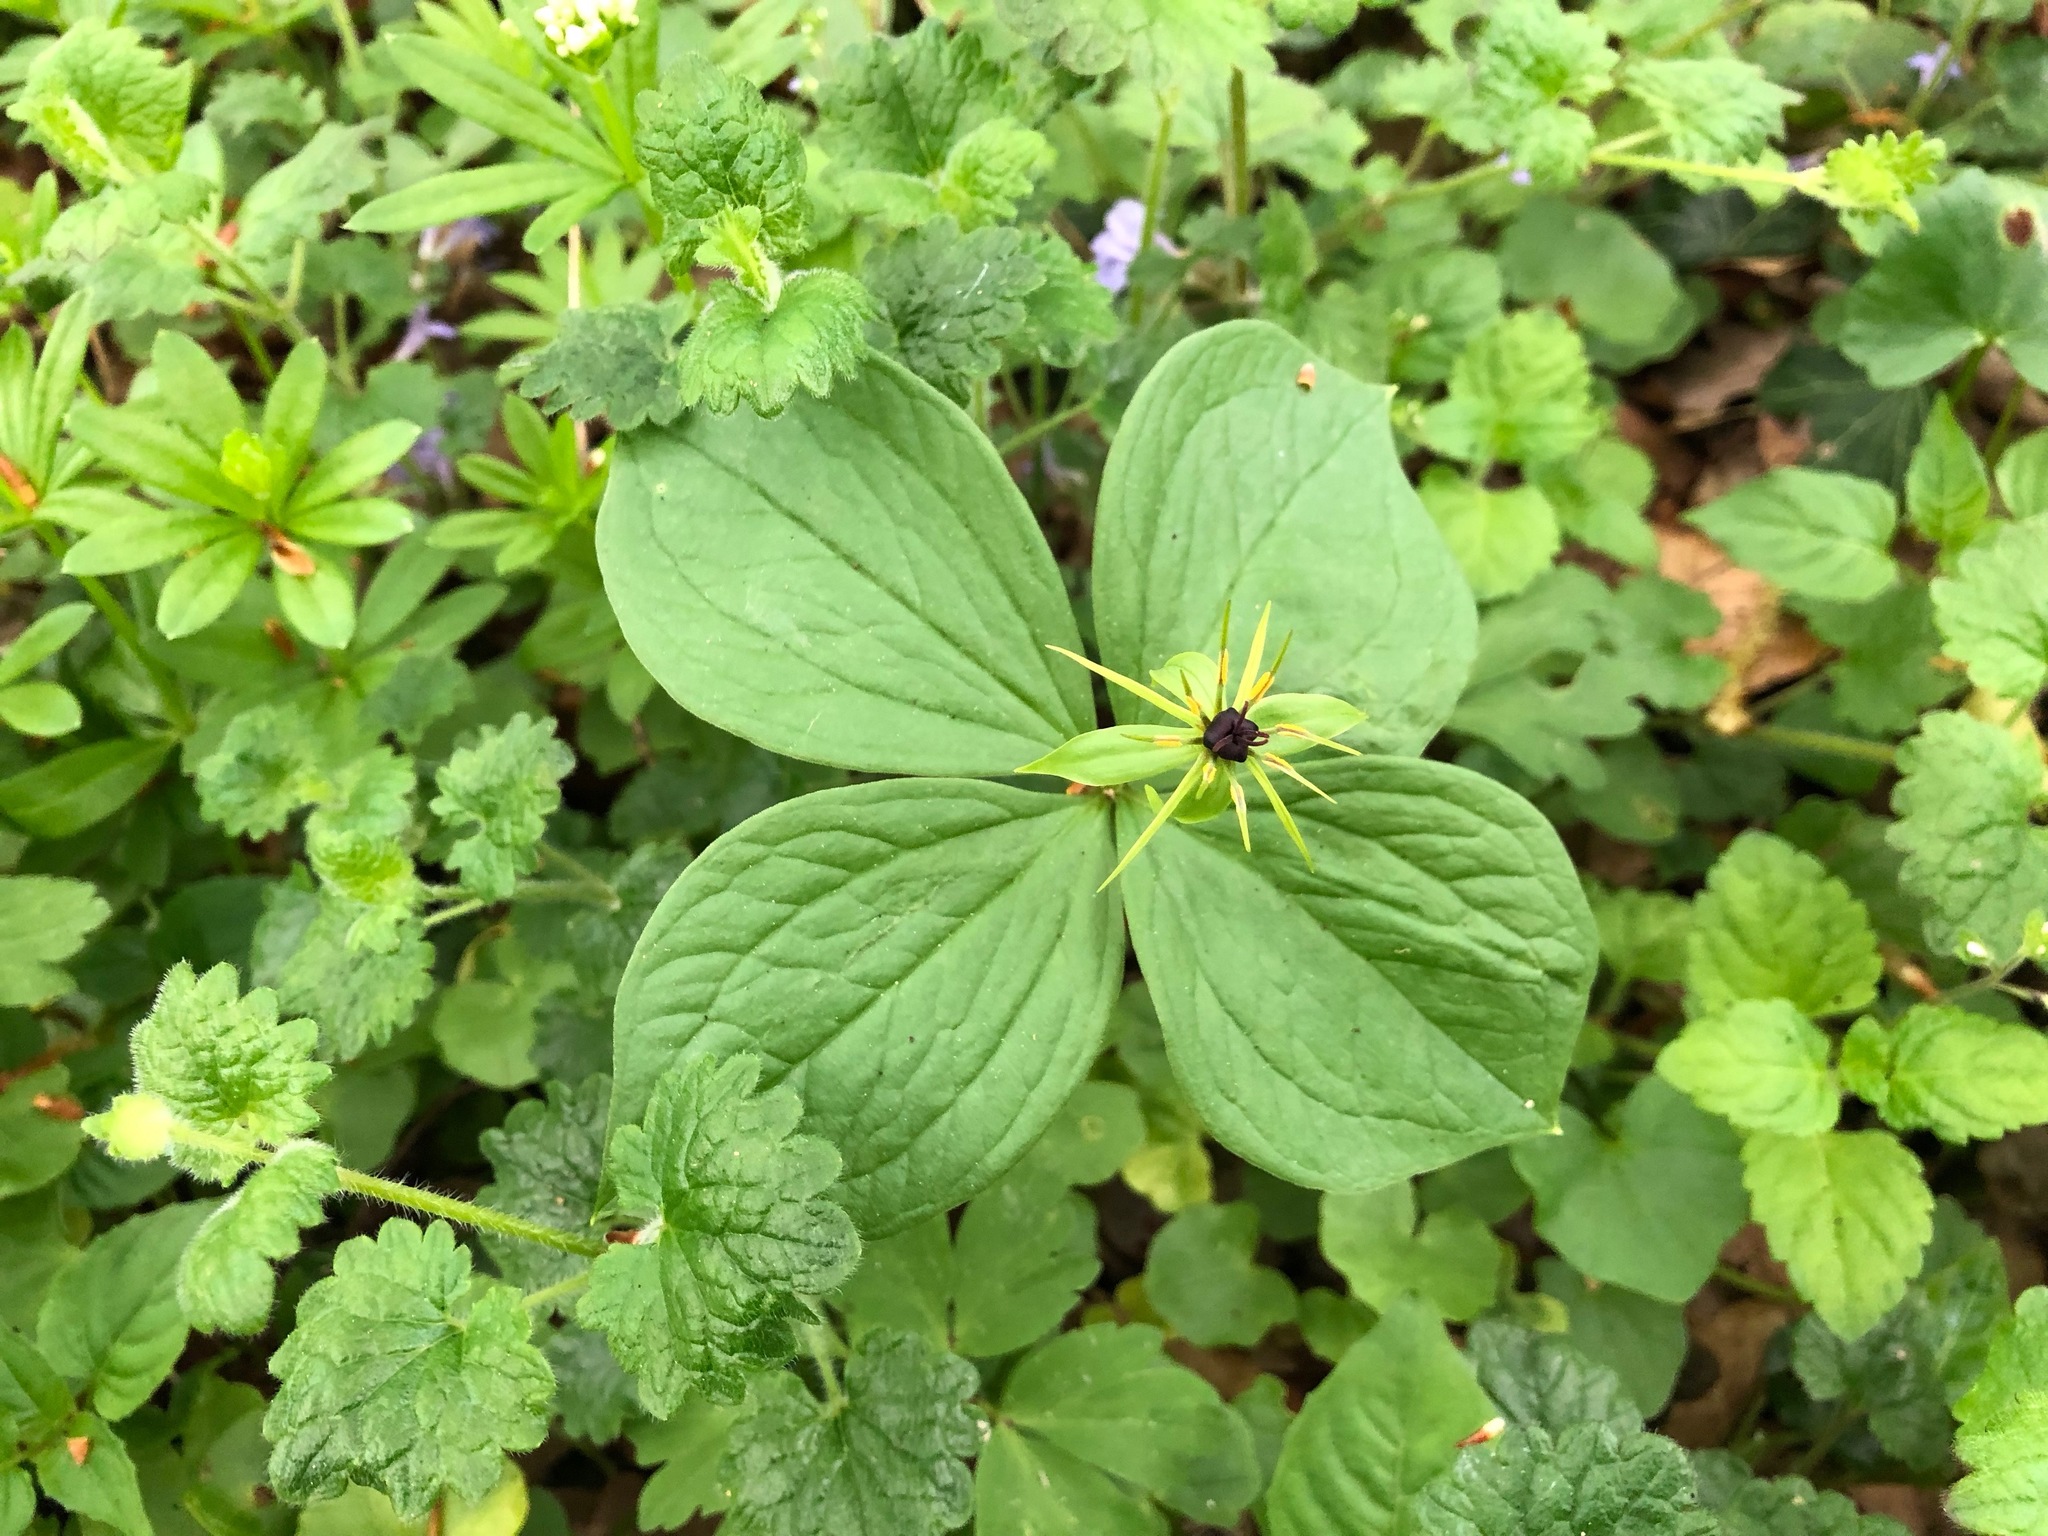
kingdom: Plantae
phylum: Tracheophyta
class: Liliopsida
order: Liliales
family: Melanthiaceae
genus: Paris
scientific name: Paris quadrifolia
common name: Herb-paris
